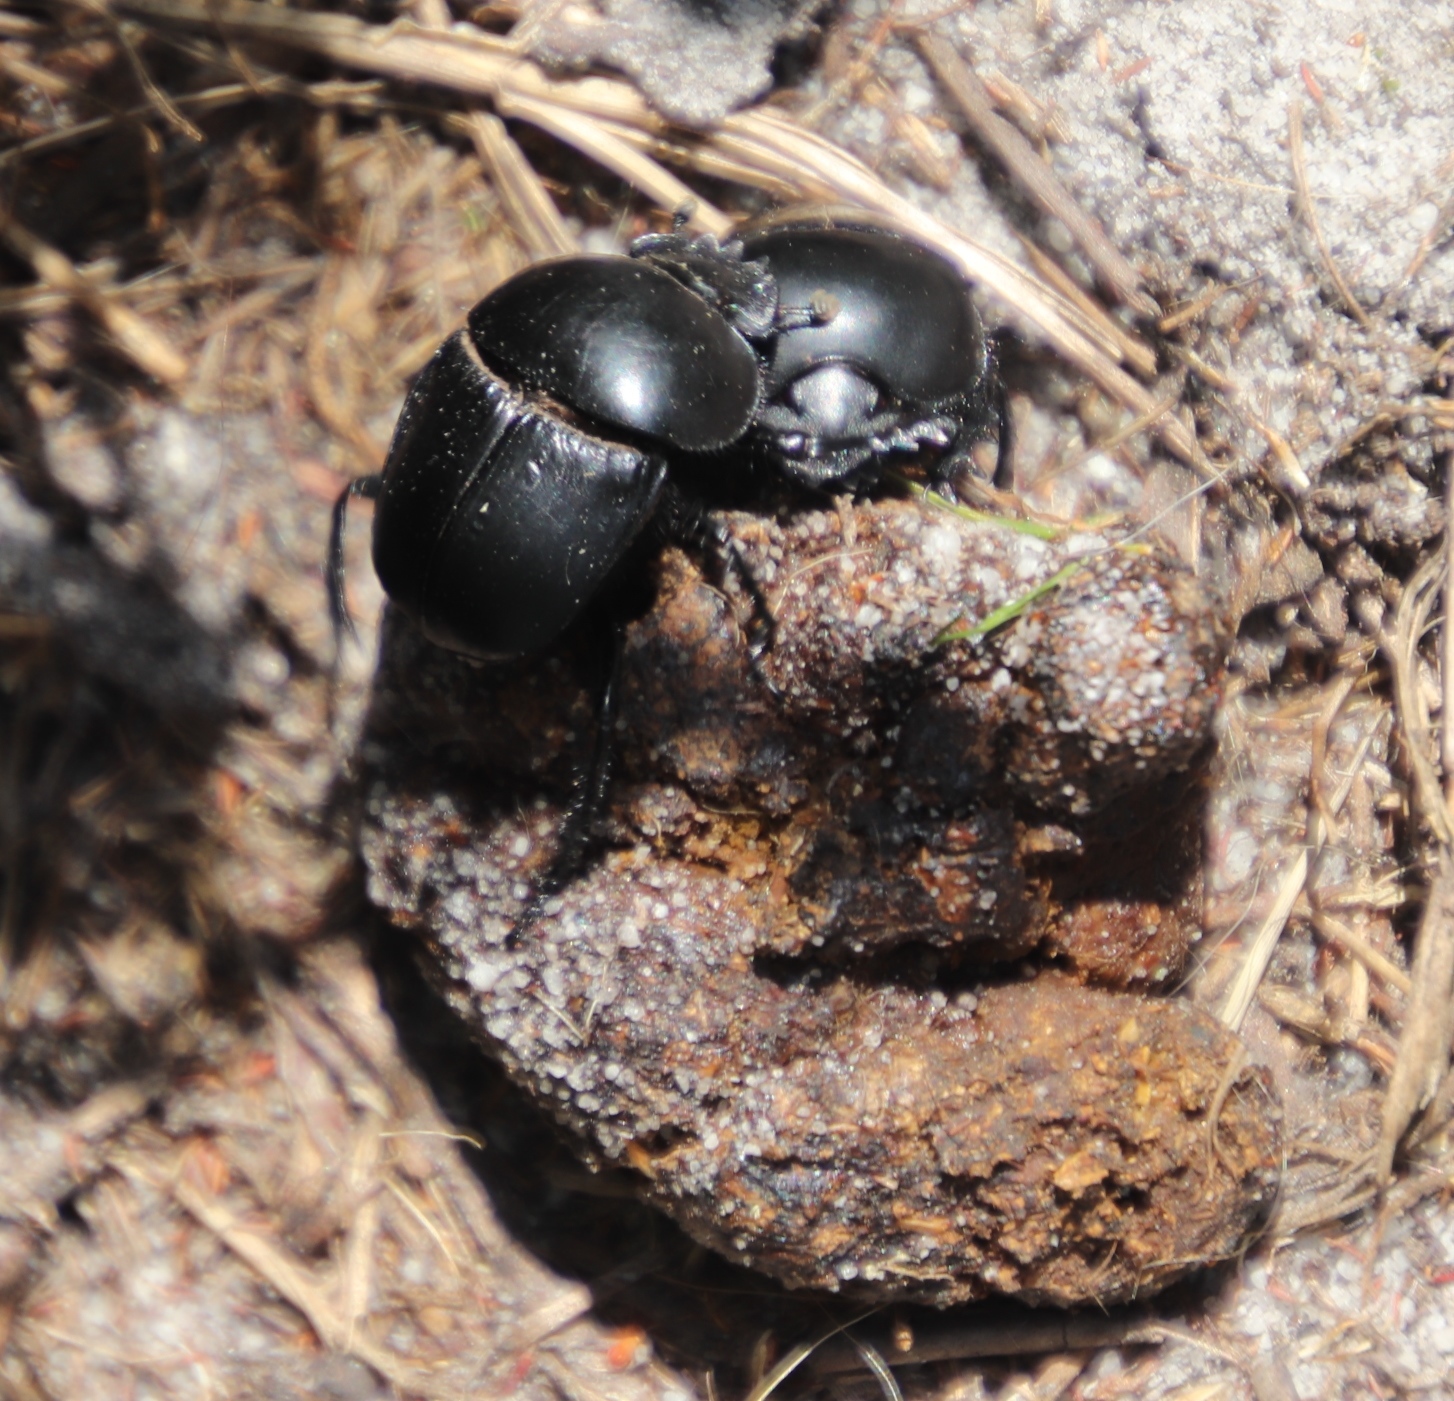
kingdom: Animalia
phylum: Arthropoda
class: Insecta
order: Coleoptera
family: Scarabaeidae
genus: Scarabaeus
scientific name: Scarabaeus suri
